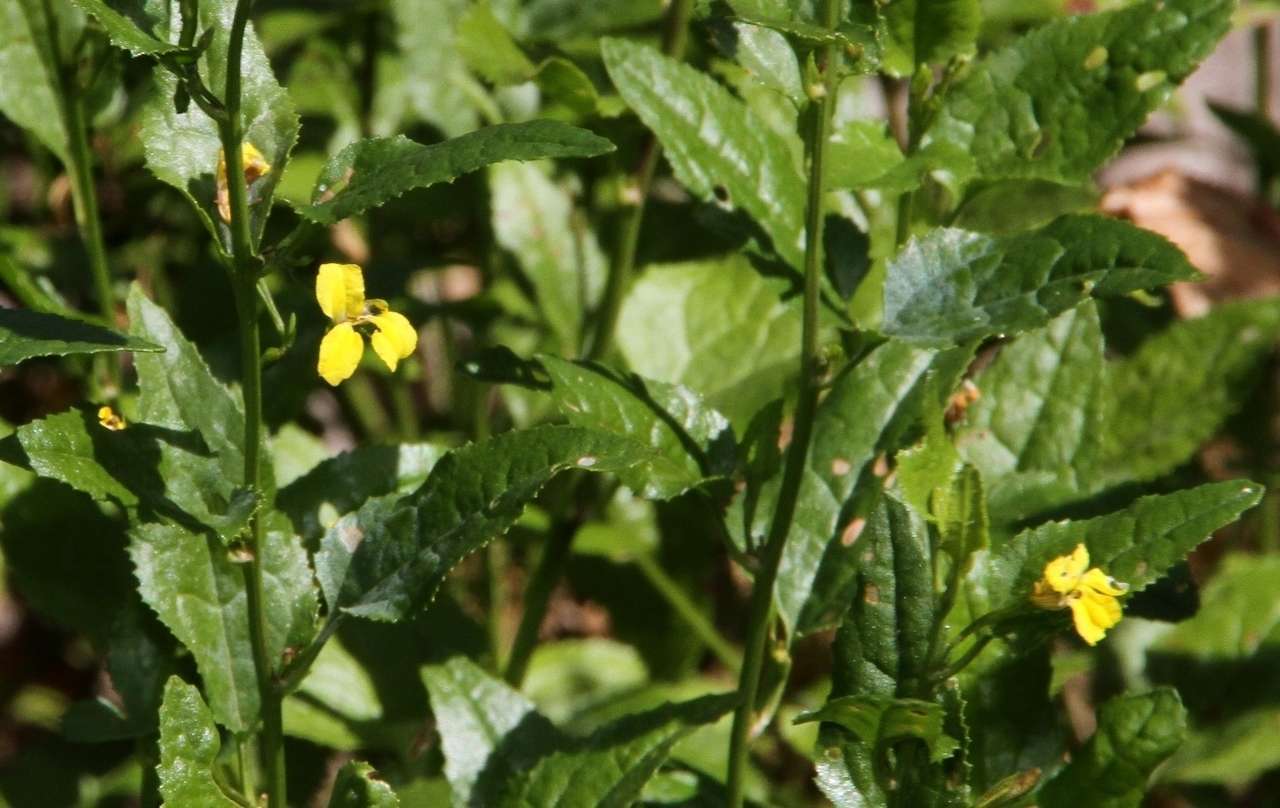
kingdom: Plantae
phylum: Tracheophyta
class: Magnoliopsida
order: Asterales
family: Goodeniaceae
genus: Goodenia
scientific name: Goodenia ovata
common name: Hop goodenia
